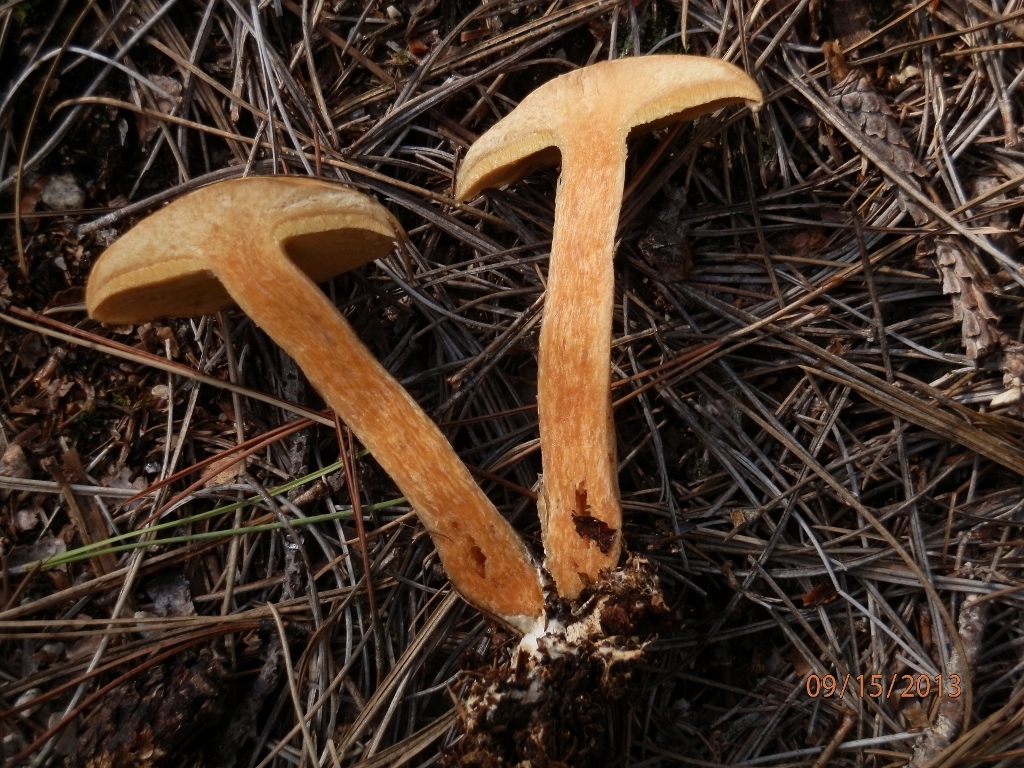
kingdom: Fungi
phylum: Basidiomycota
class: Agaricomycetes
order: Boletales
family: Suillaceae
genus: Suillus
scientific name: Suillus acidus
